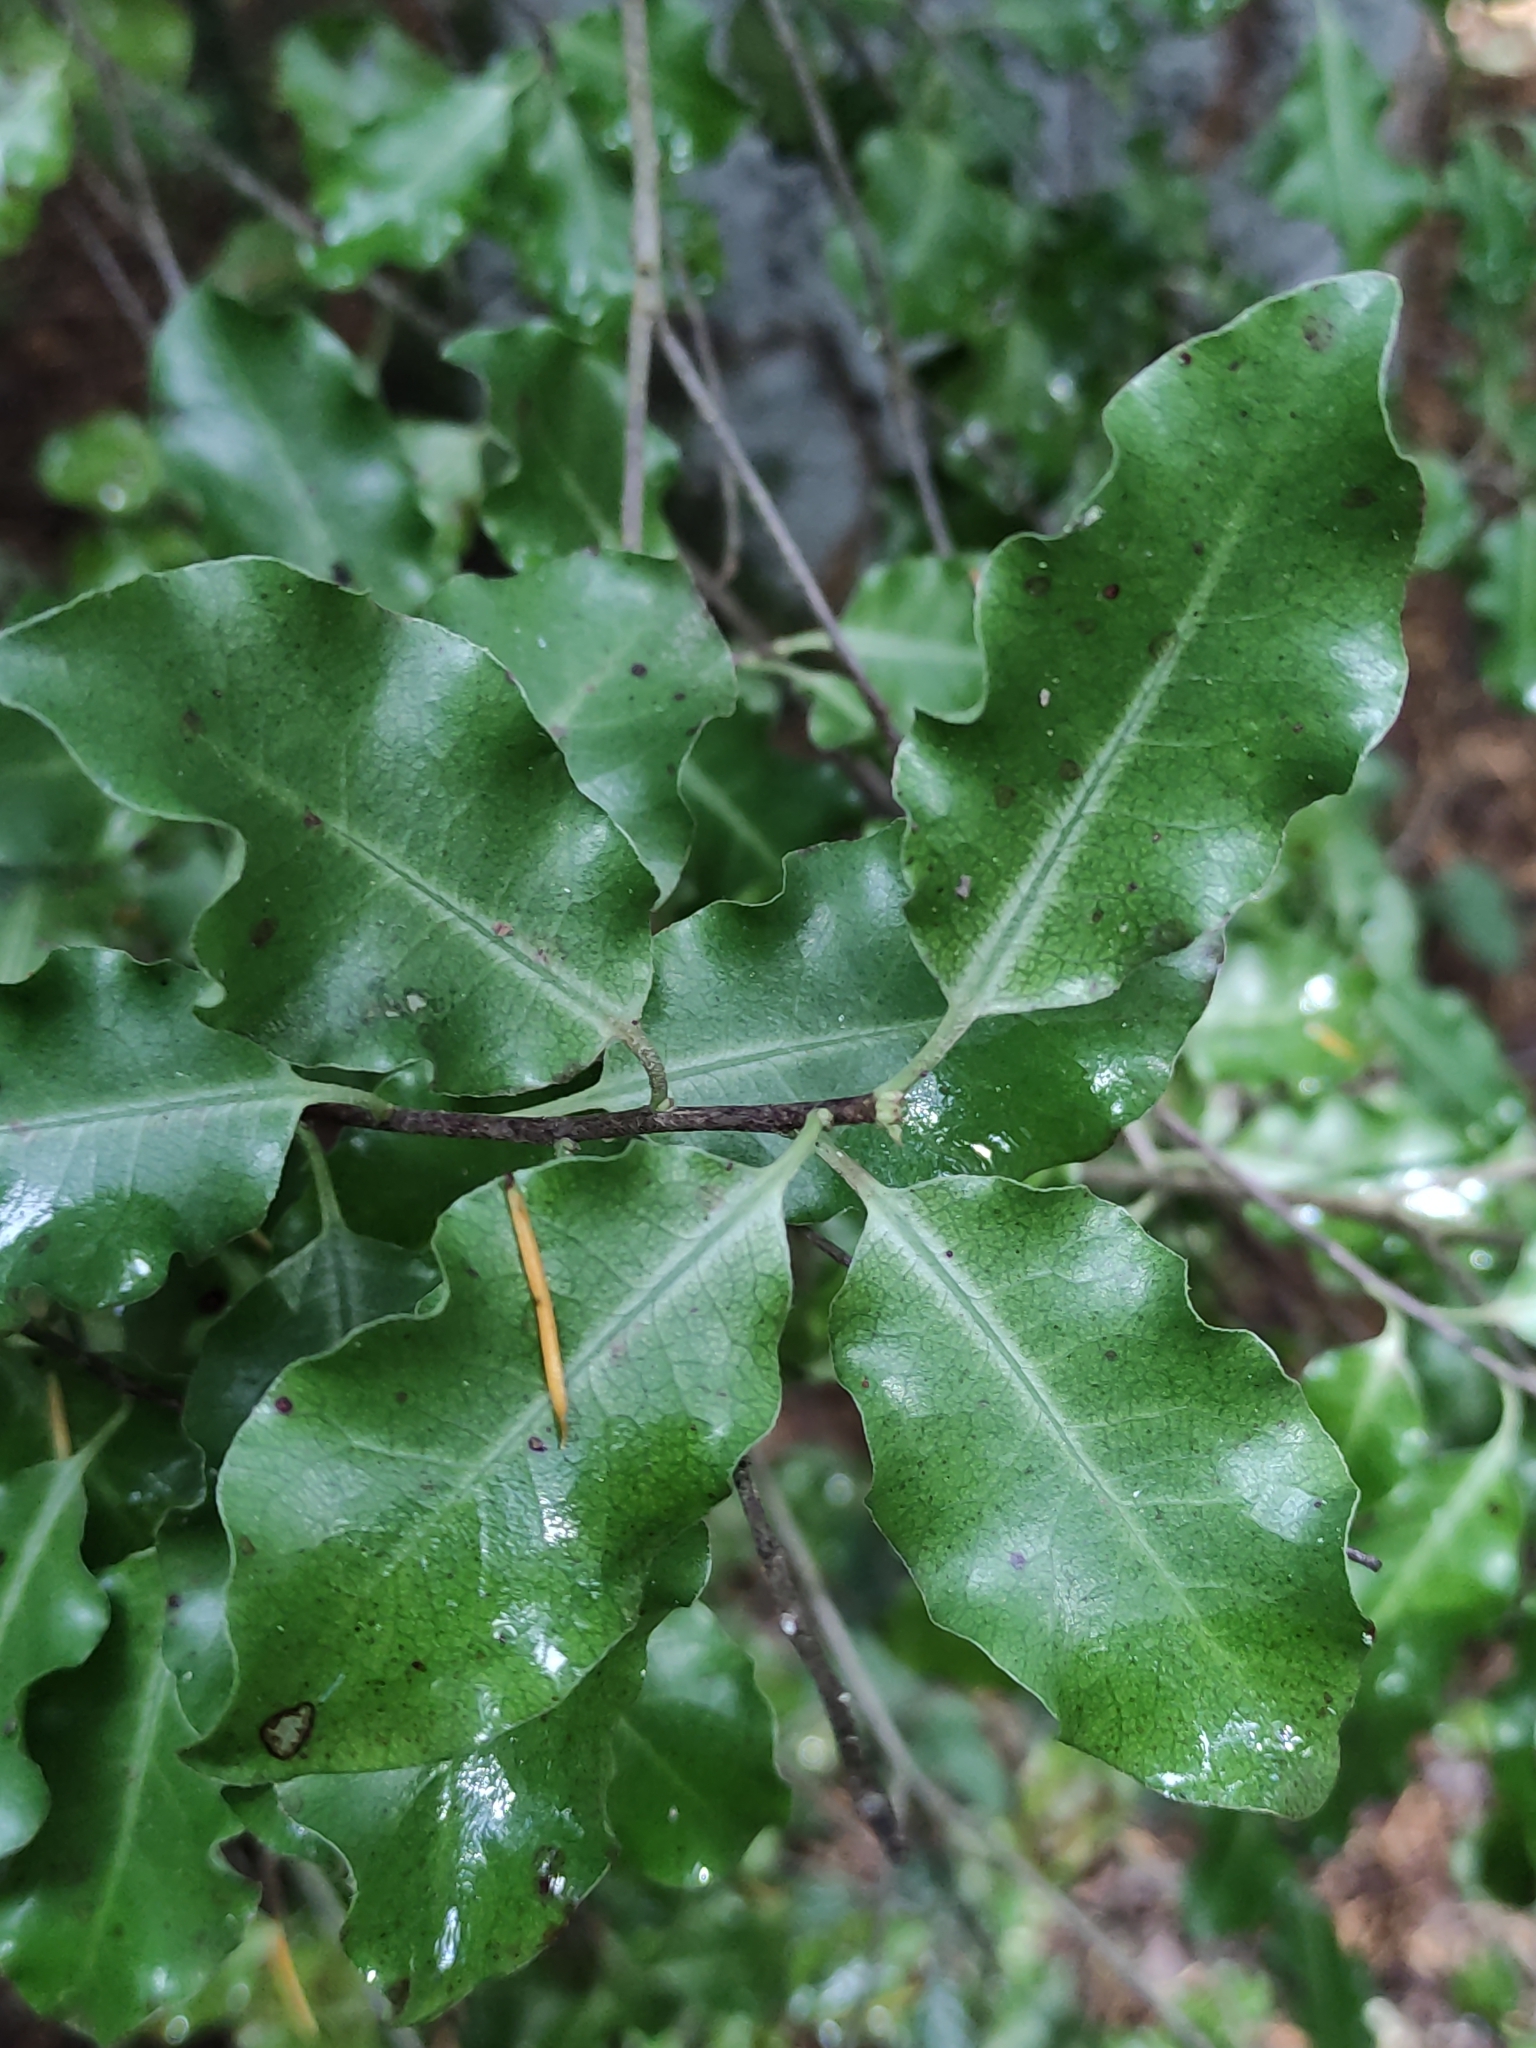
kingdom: Plantae
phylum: Tracheophyta
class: Magnoliopsida
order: Apiales
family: Pittosporaceae
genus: Pittosporum
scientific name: Pittosporum tenuifolium
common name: Kohuhu
